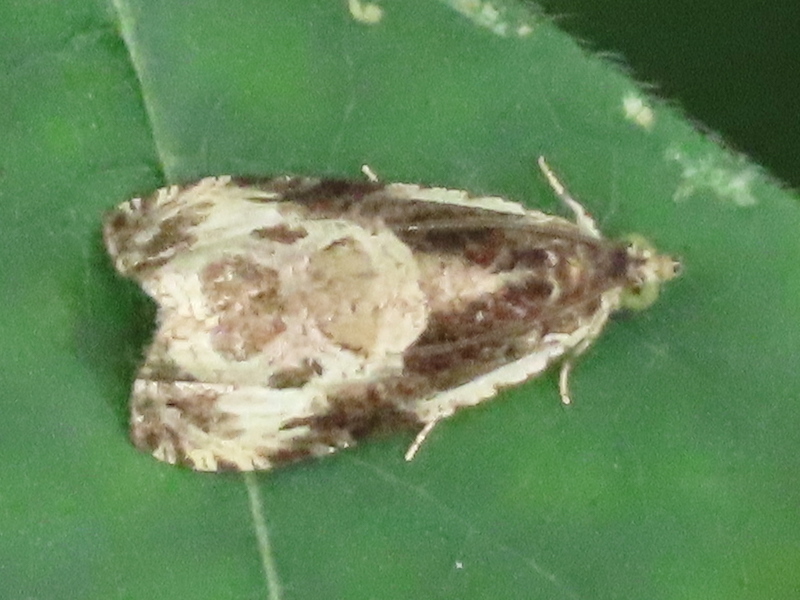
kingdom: Animalia
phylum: Arthropoda
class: Insecta
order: Lepidoptera
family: Tortricidae
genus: Olethreutes
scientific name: Olethreutes connectum
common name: Bunchberry leaffolder moth
